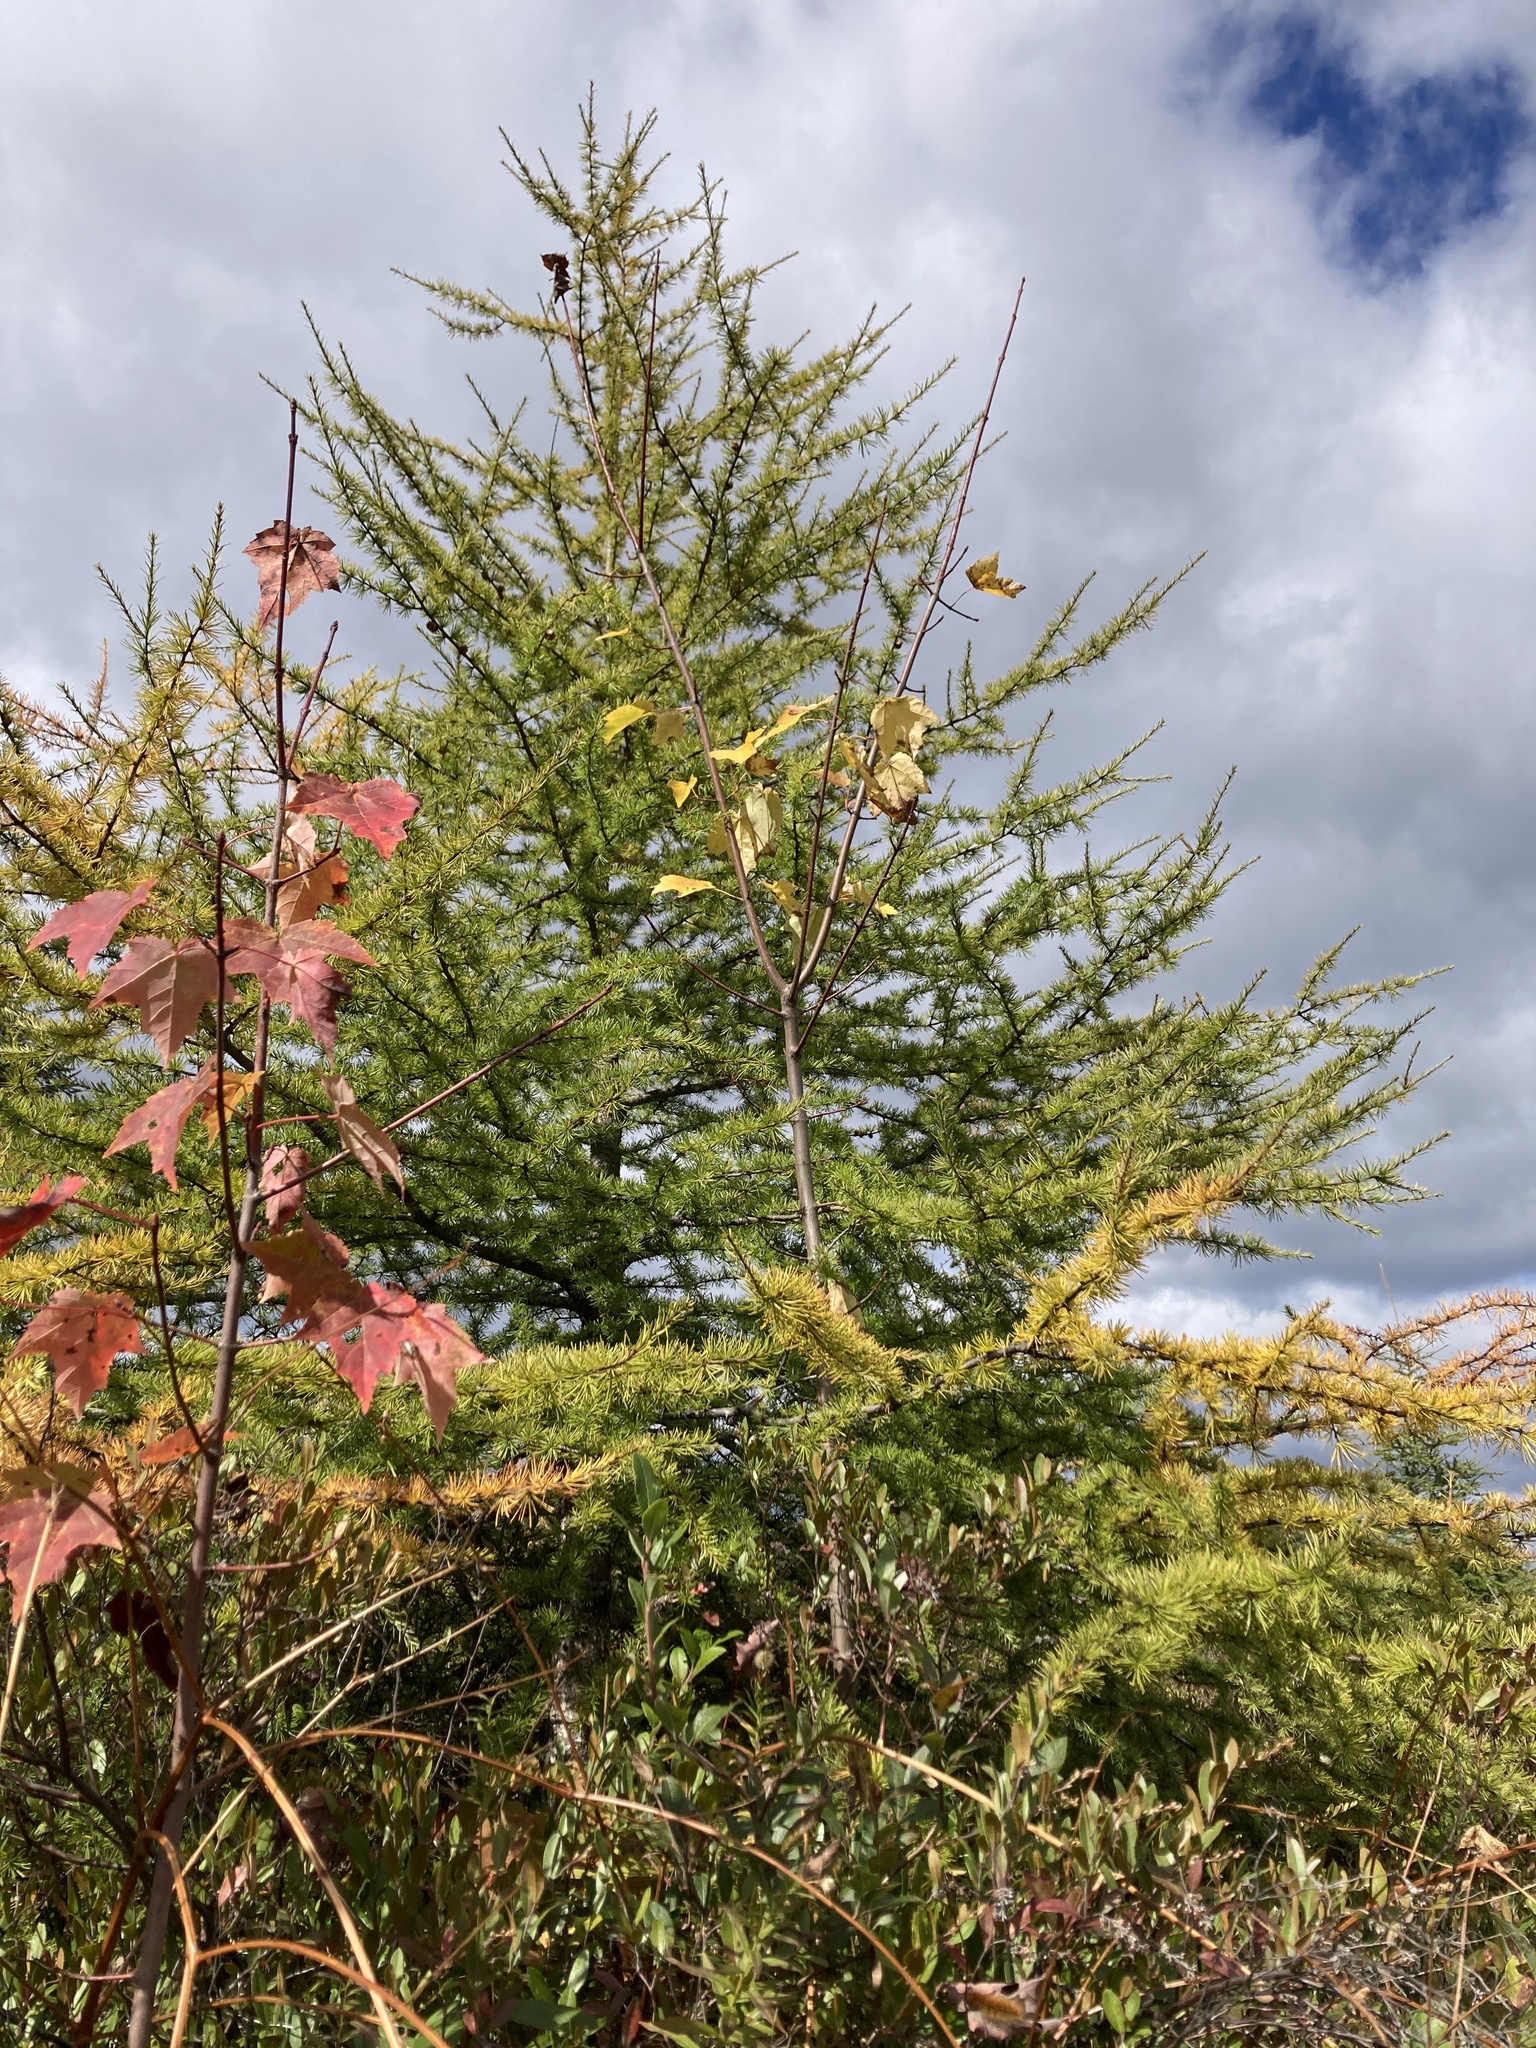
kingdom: Plantae
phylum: Tracheophyta
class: Pinopsida
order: Pinales
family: Pinaceae
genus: Larix
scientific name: Larix laricina
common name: American larch
